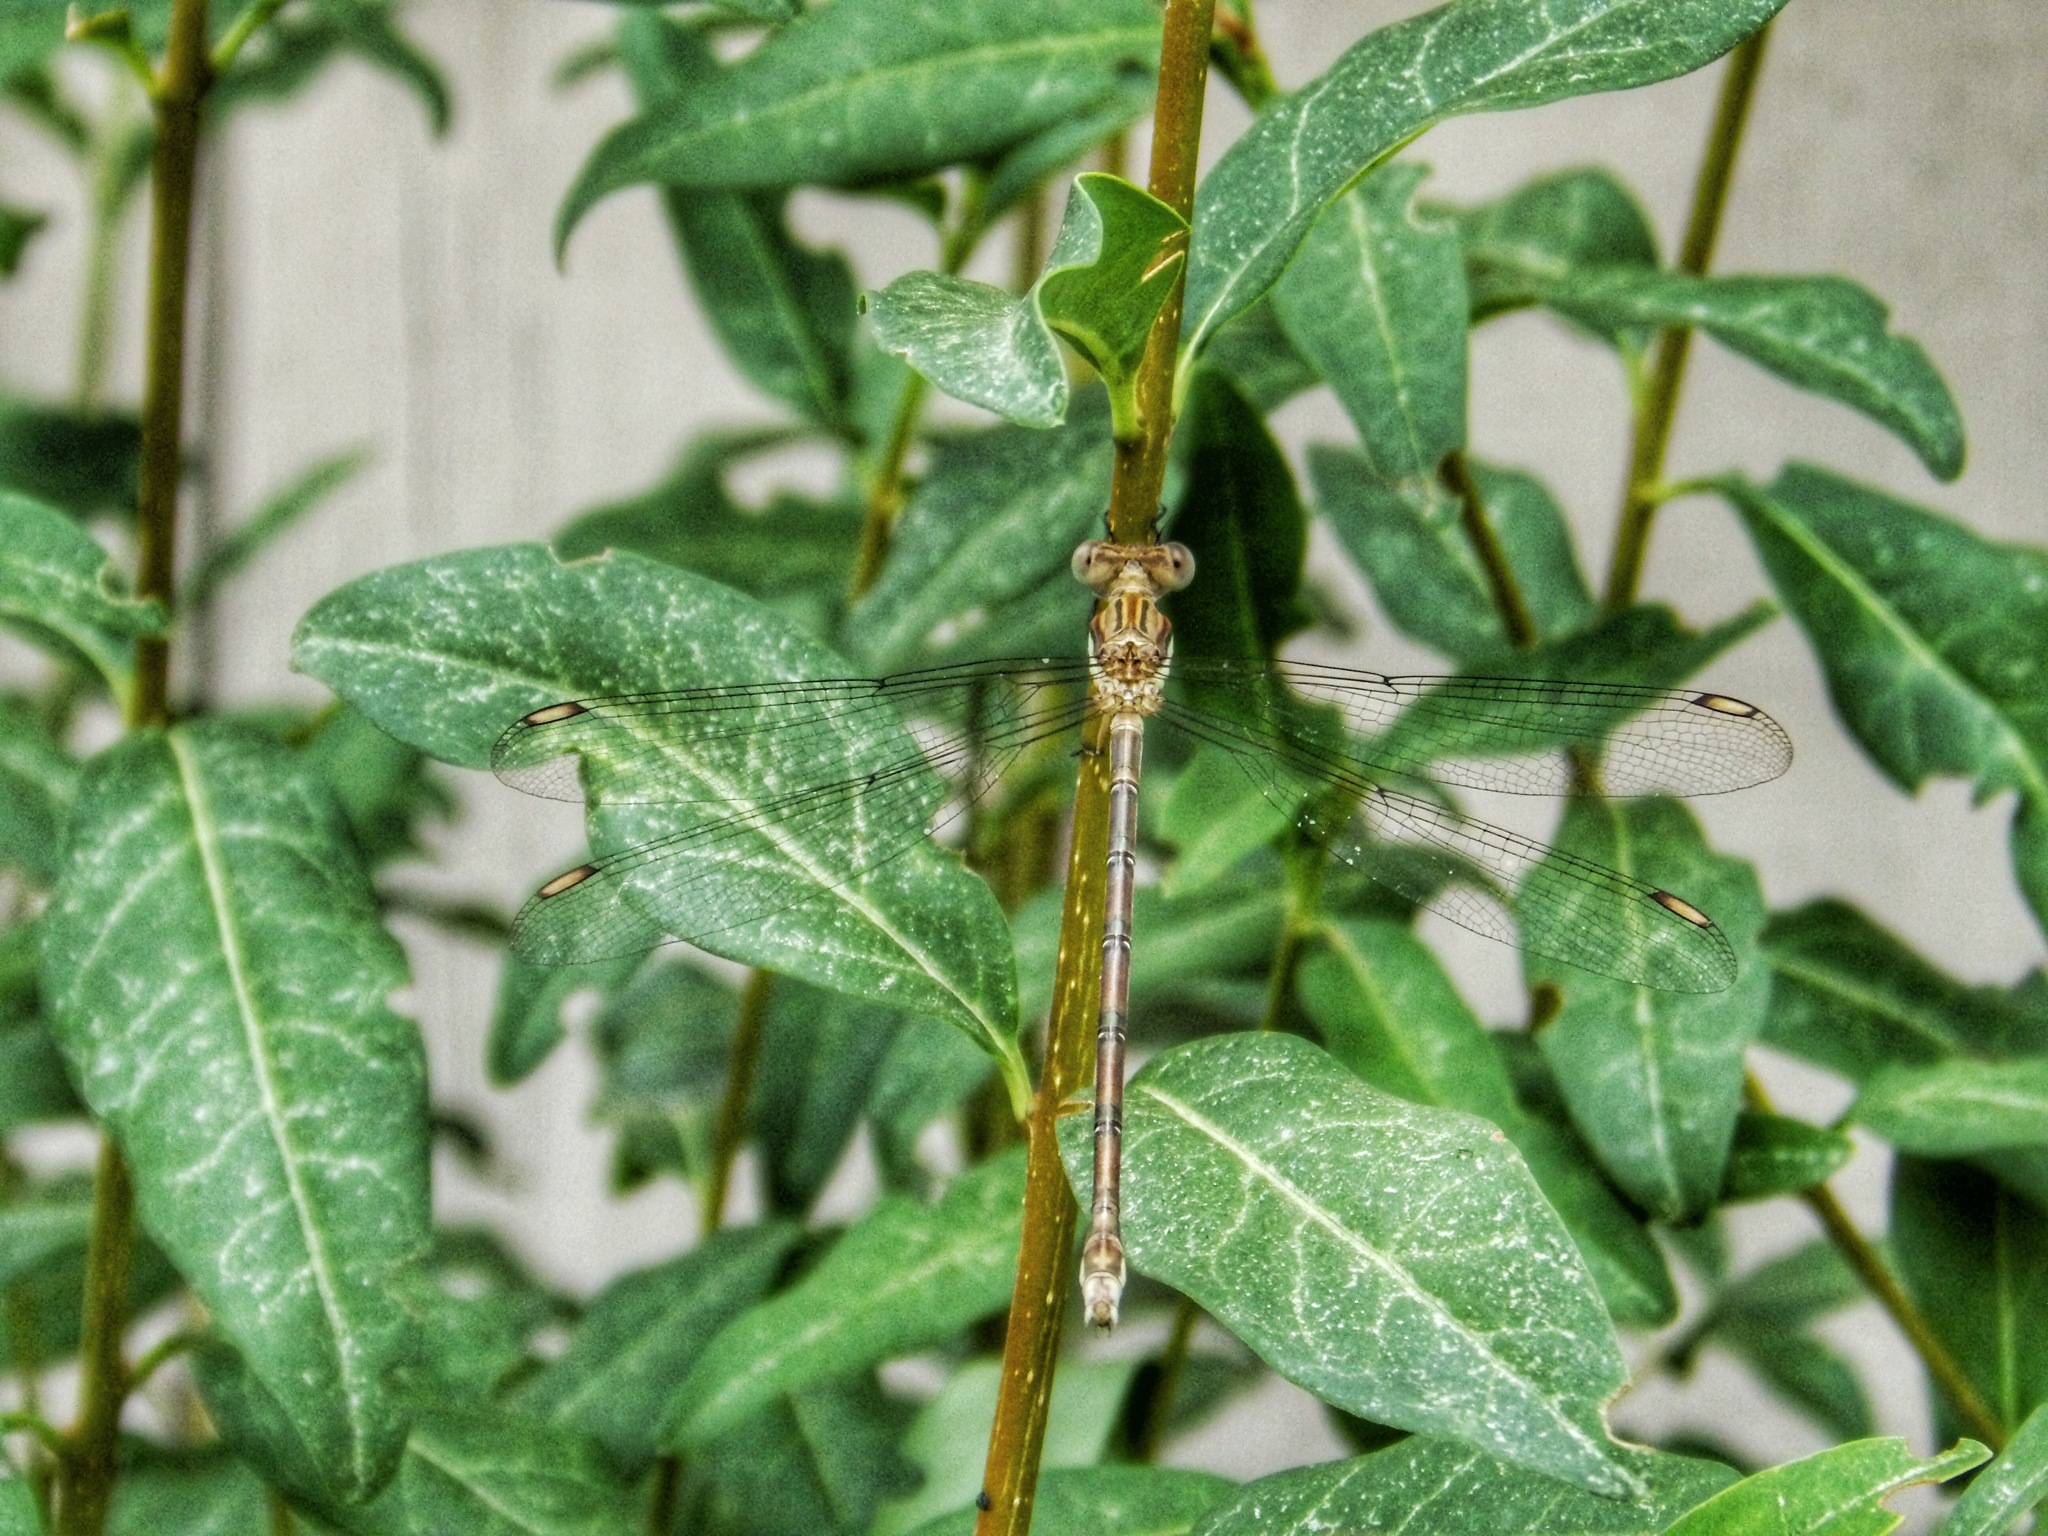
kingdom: Animalia
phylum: Arthropoda
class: Insecta
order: Odonata
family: Lestidae
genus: Archilestes
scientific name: Archilestes grandis
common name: Great spreadwing
